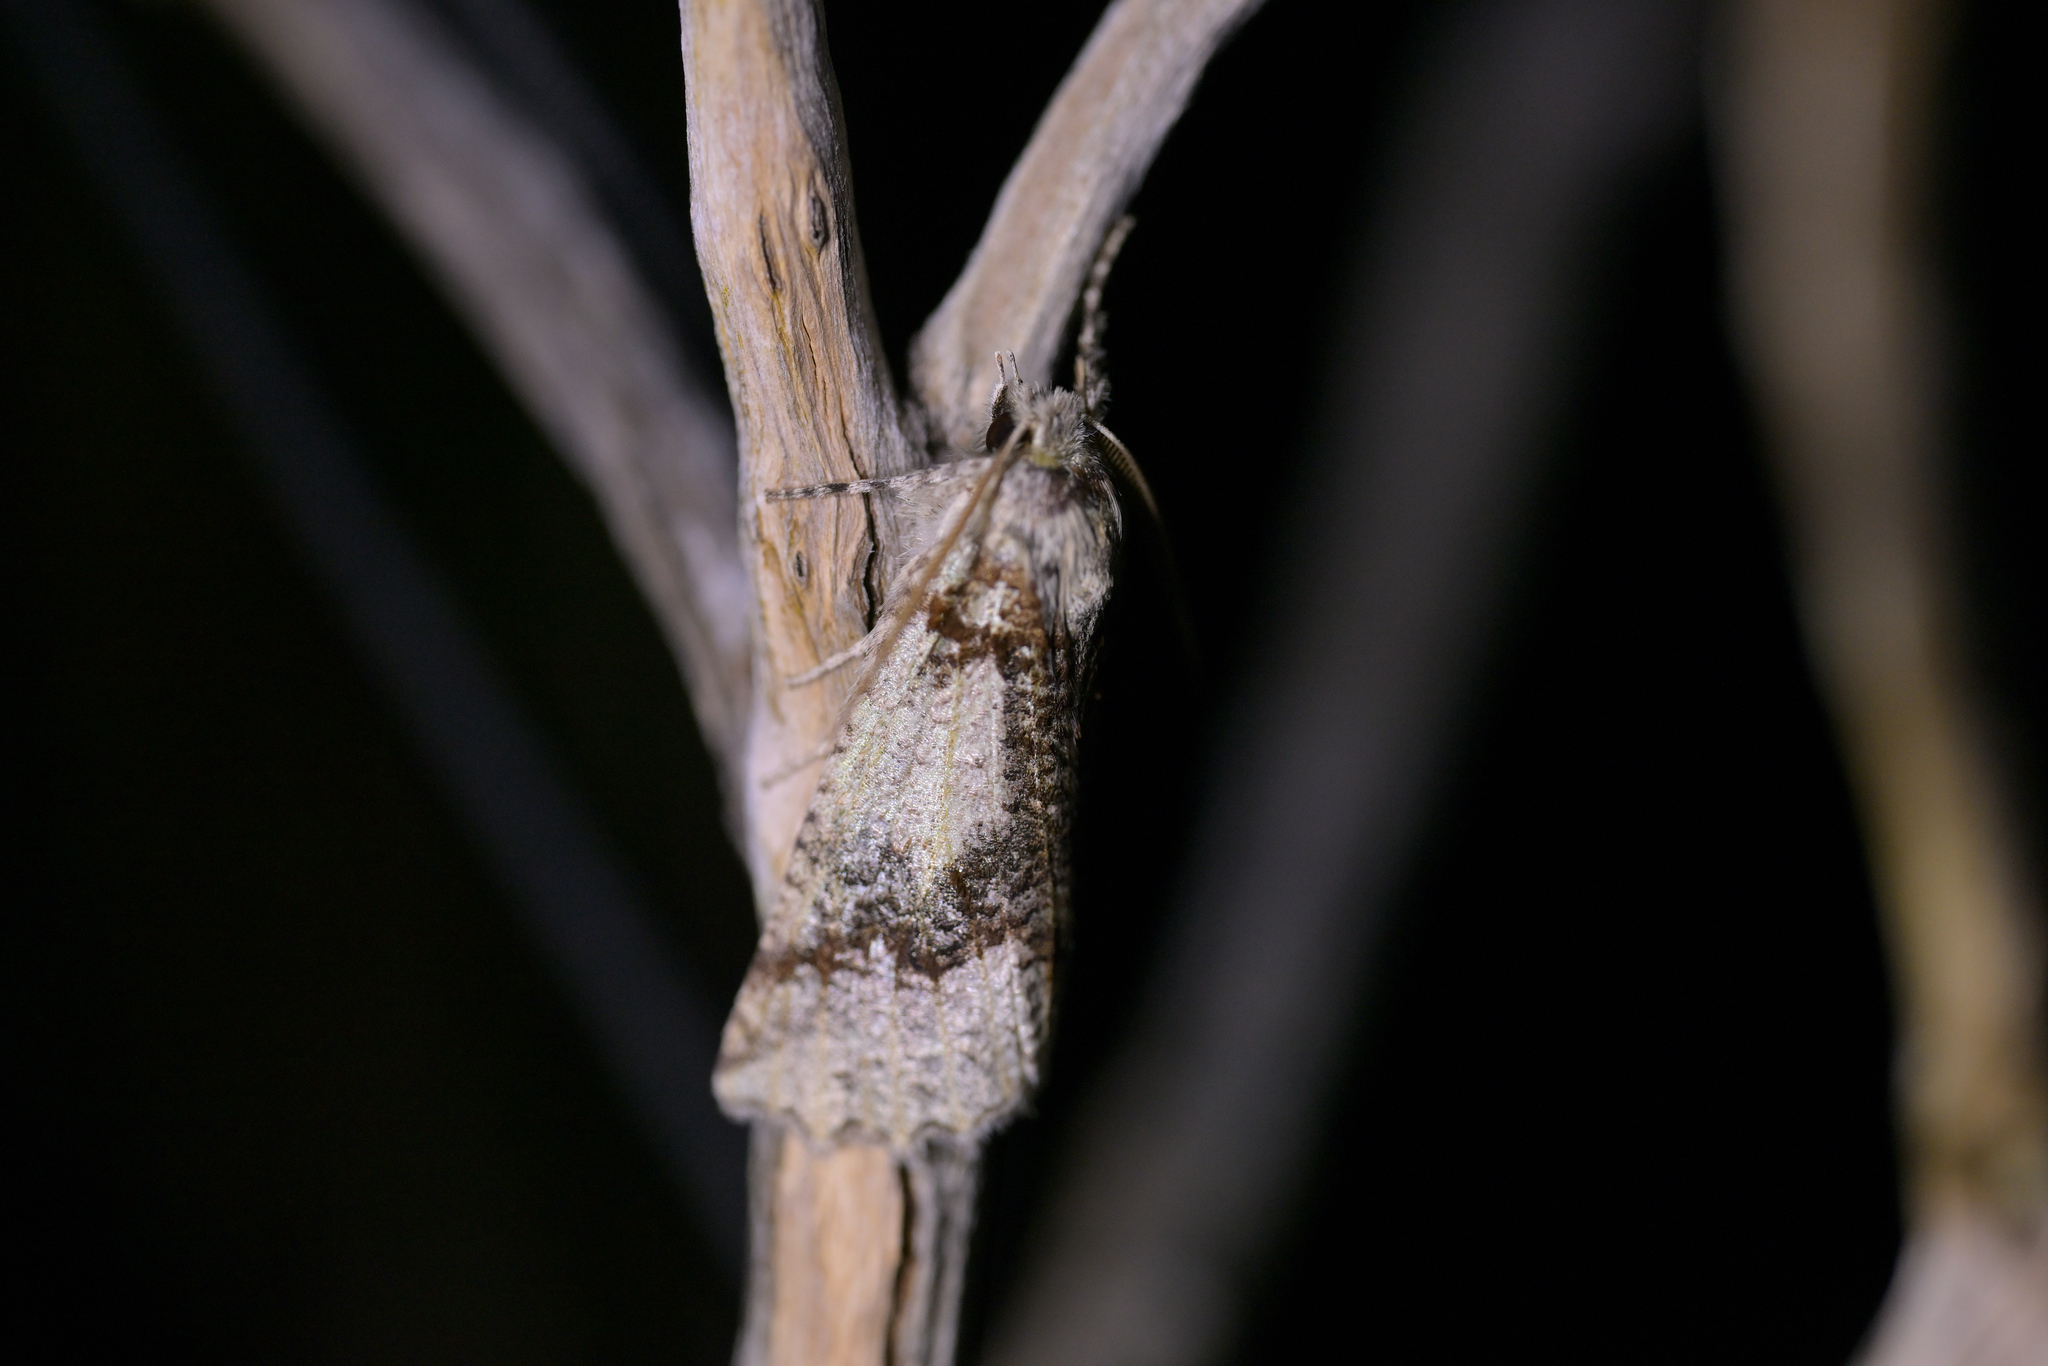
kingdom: Animalia
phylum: Arthropoda
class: Insecta
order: Lepidoptera
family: Geometridae
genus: Declana
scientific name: Declana floccosa
